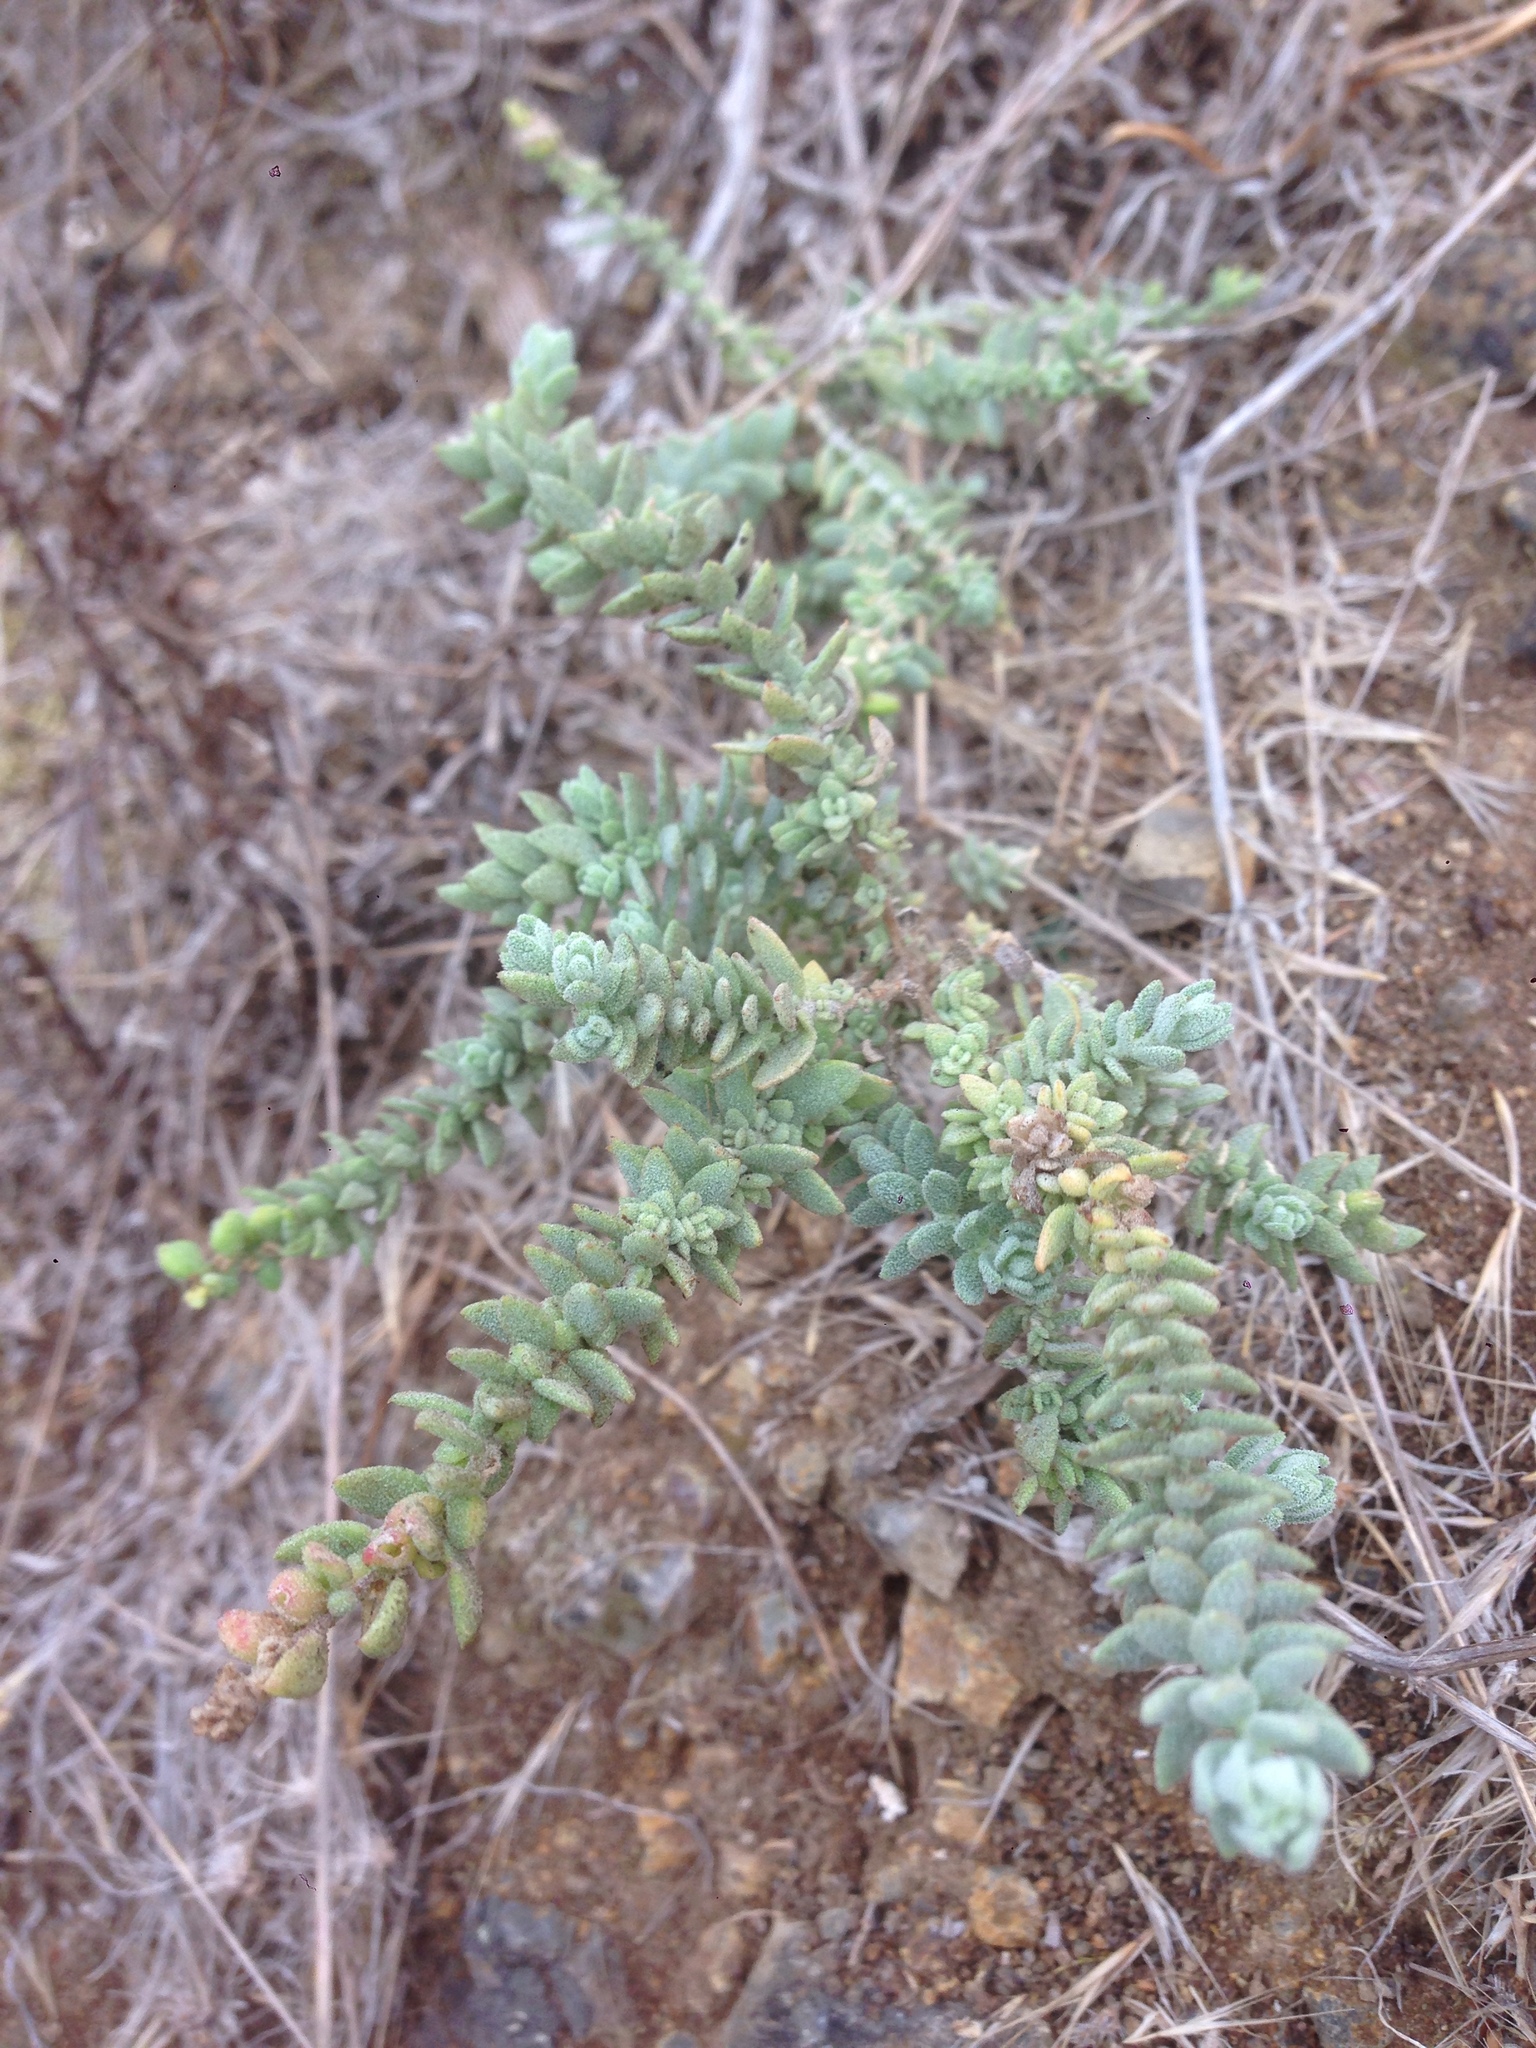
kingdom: Plantae
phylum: Tracheophyta
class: Magnoliopsida
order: Caryophyllales
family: Amaranthaceae
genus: Extriplex
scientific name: Extriplex californica
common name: California saltbush
